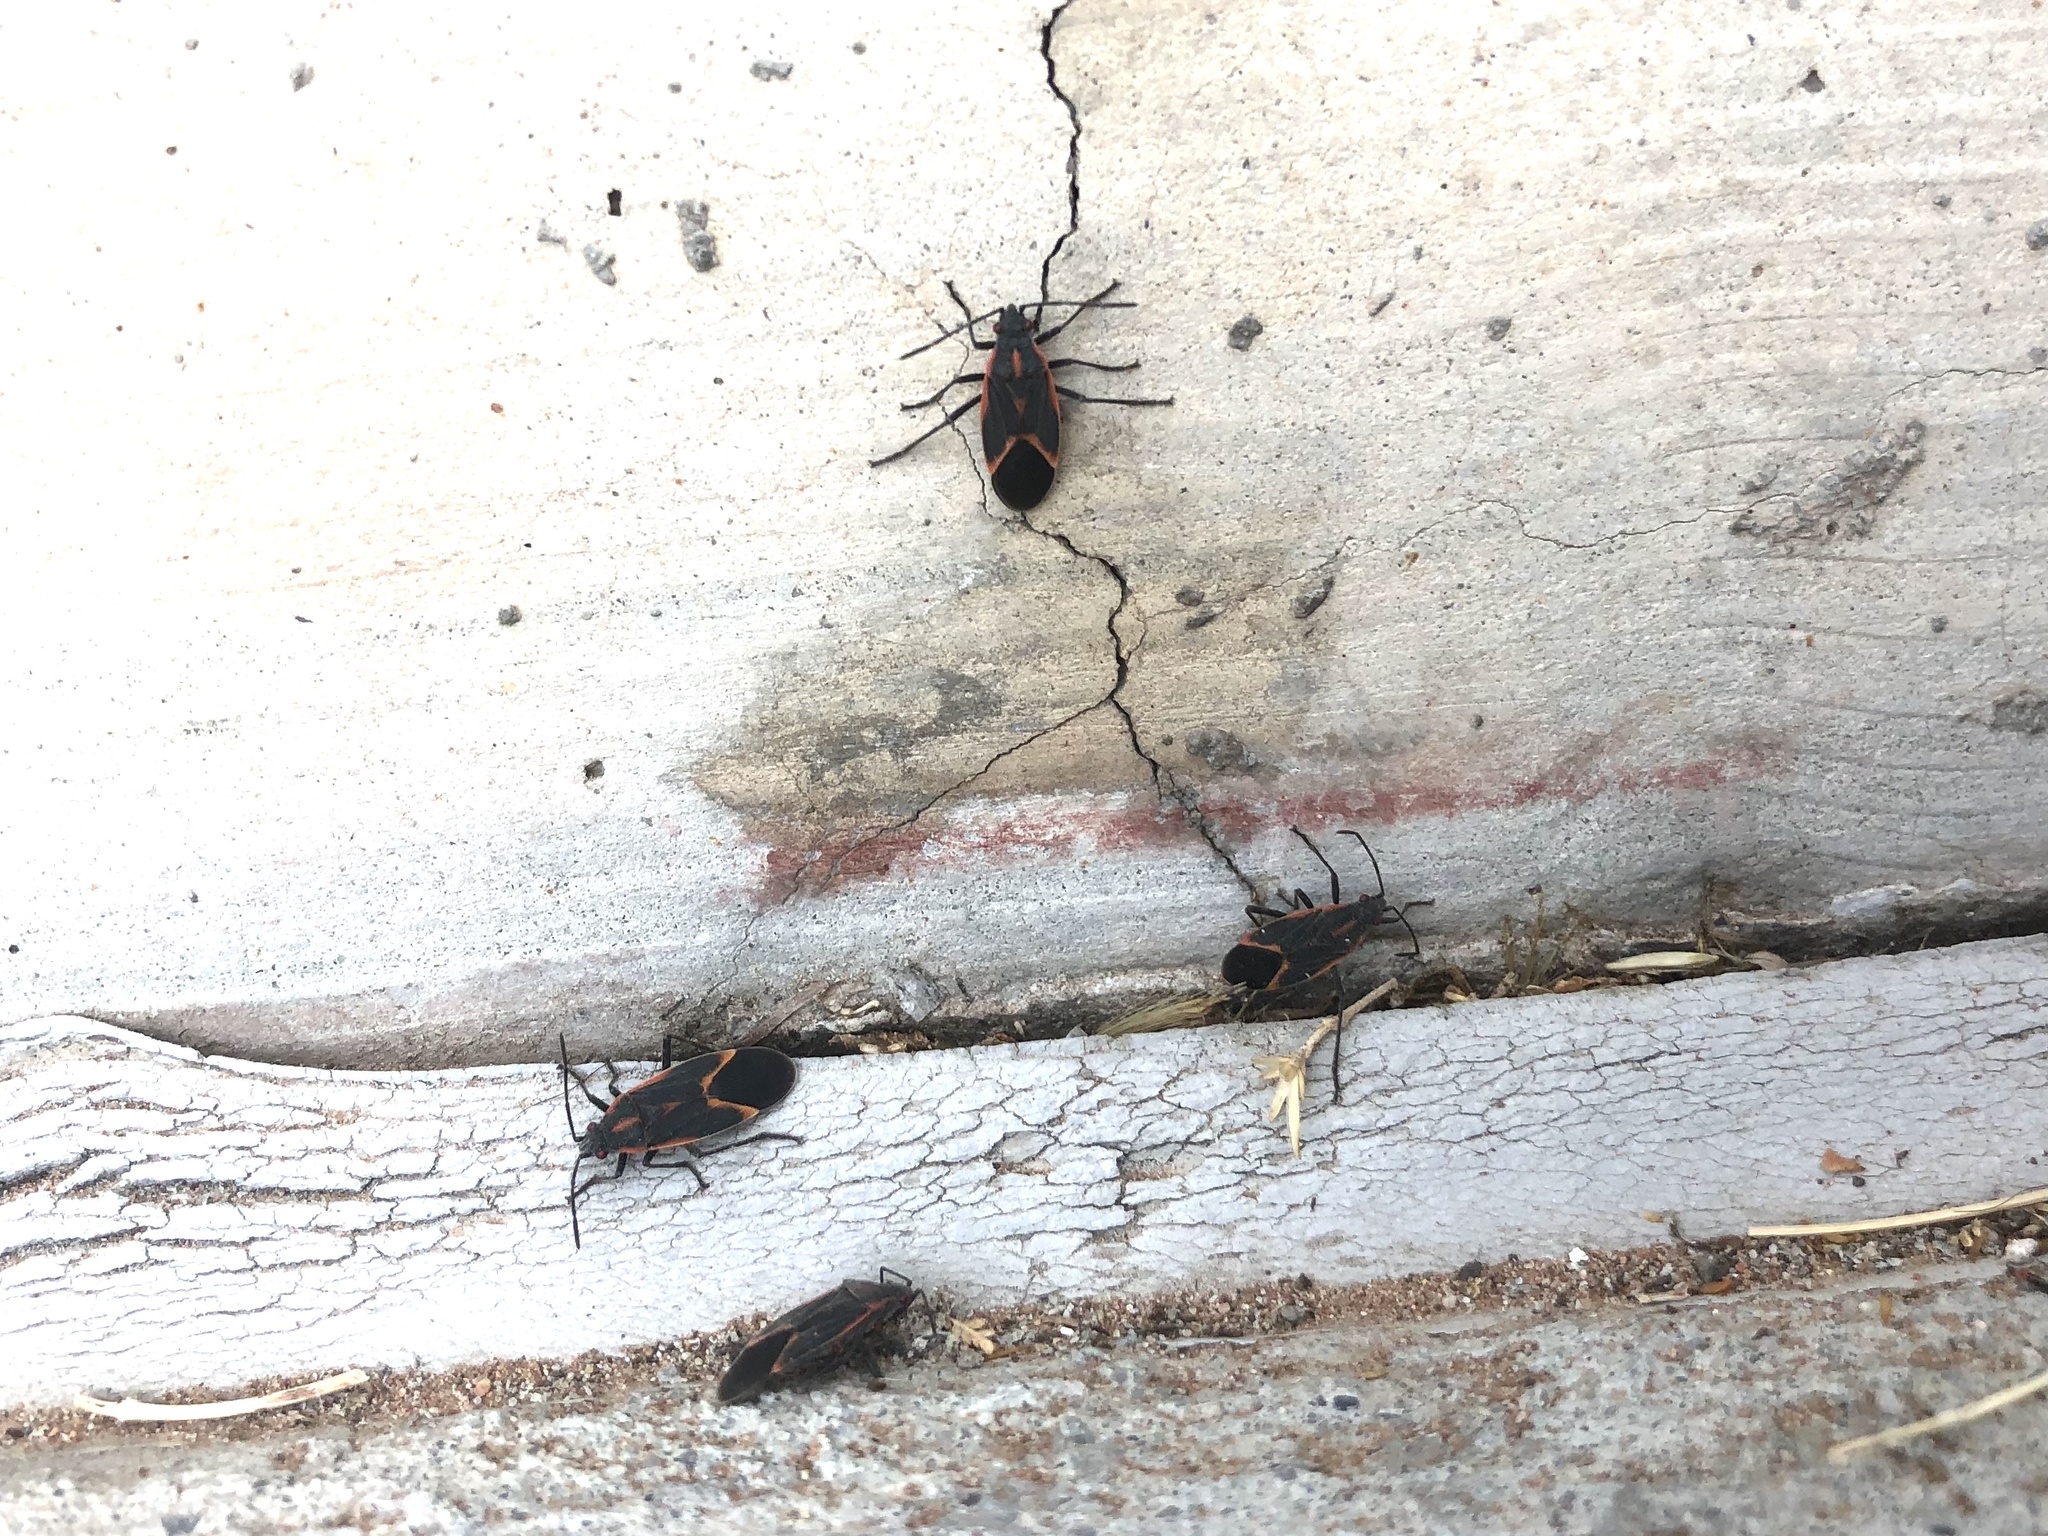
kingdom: Animalia
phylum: Arthropoda
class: Insecta
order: Hemiptera
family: Rhopalidae
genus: Boisea
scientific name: Boisea trivittata
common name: Boxelder bug
